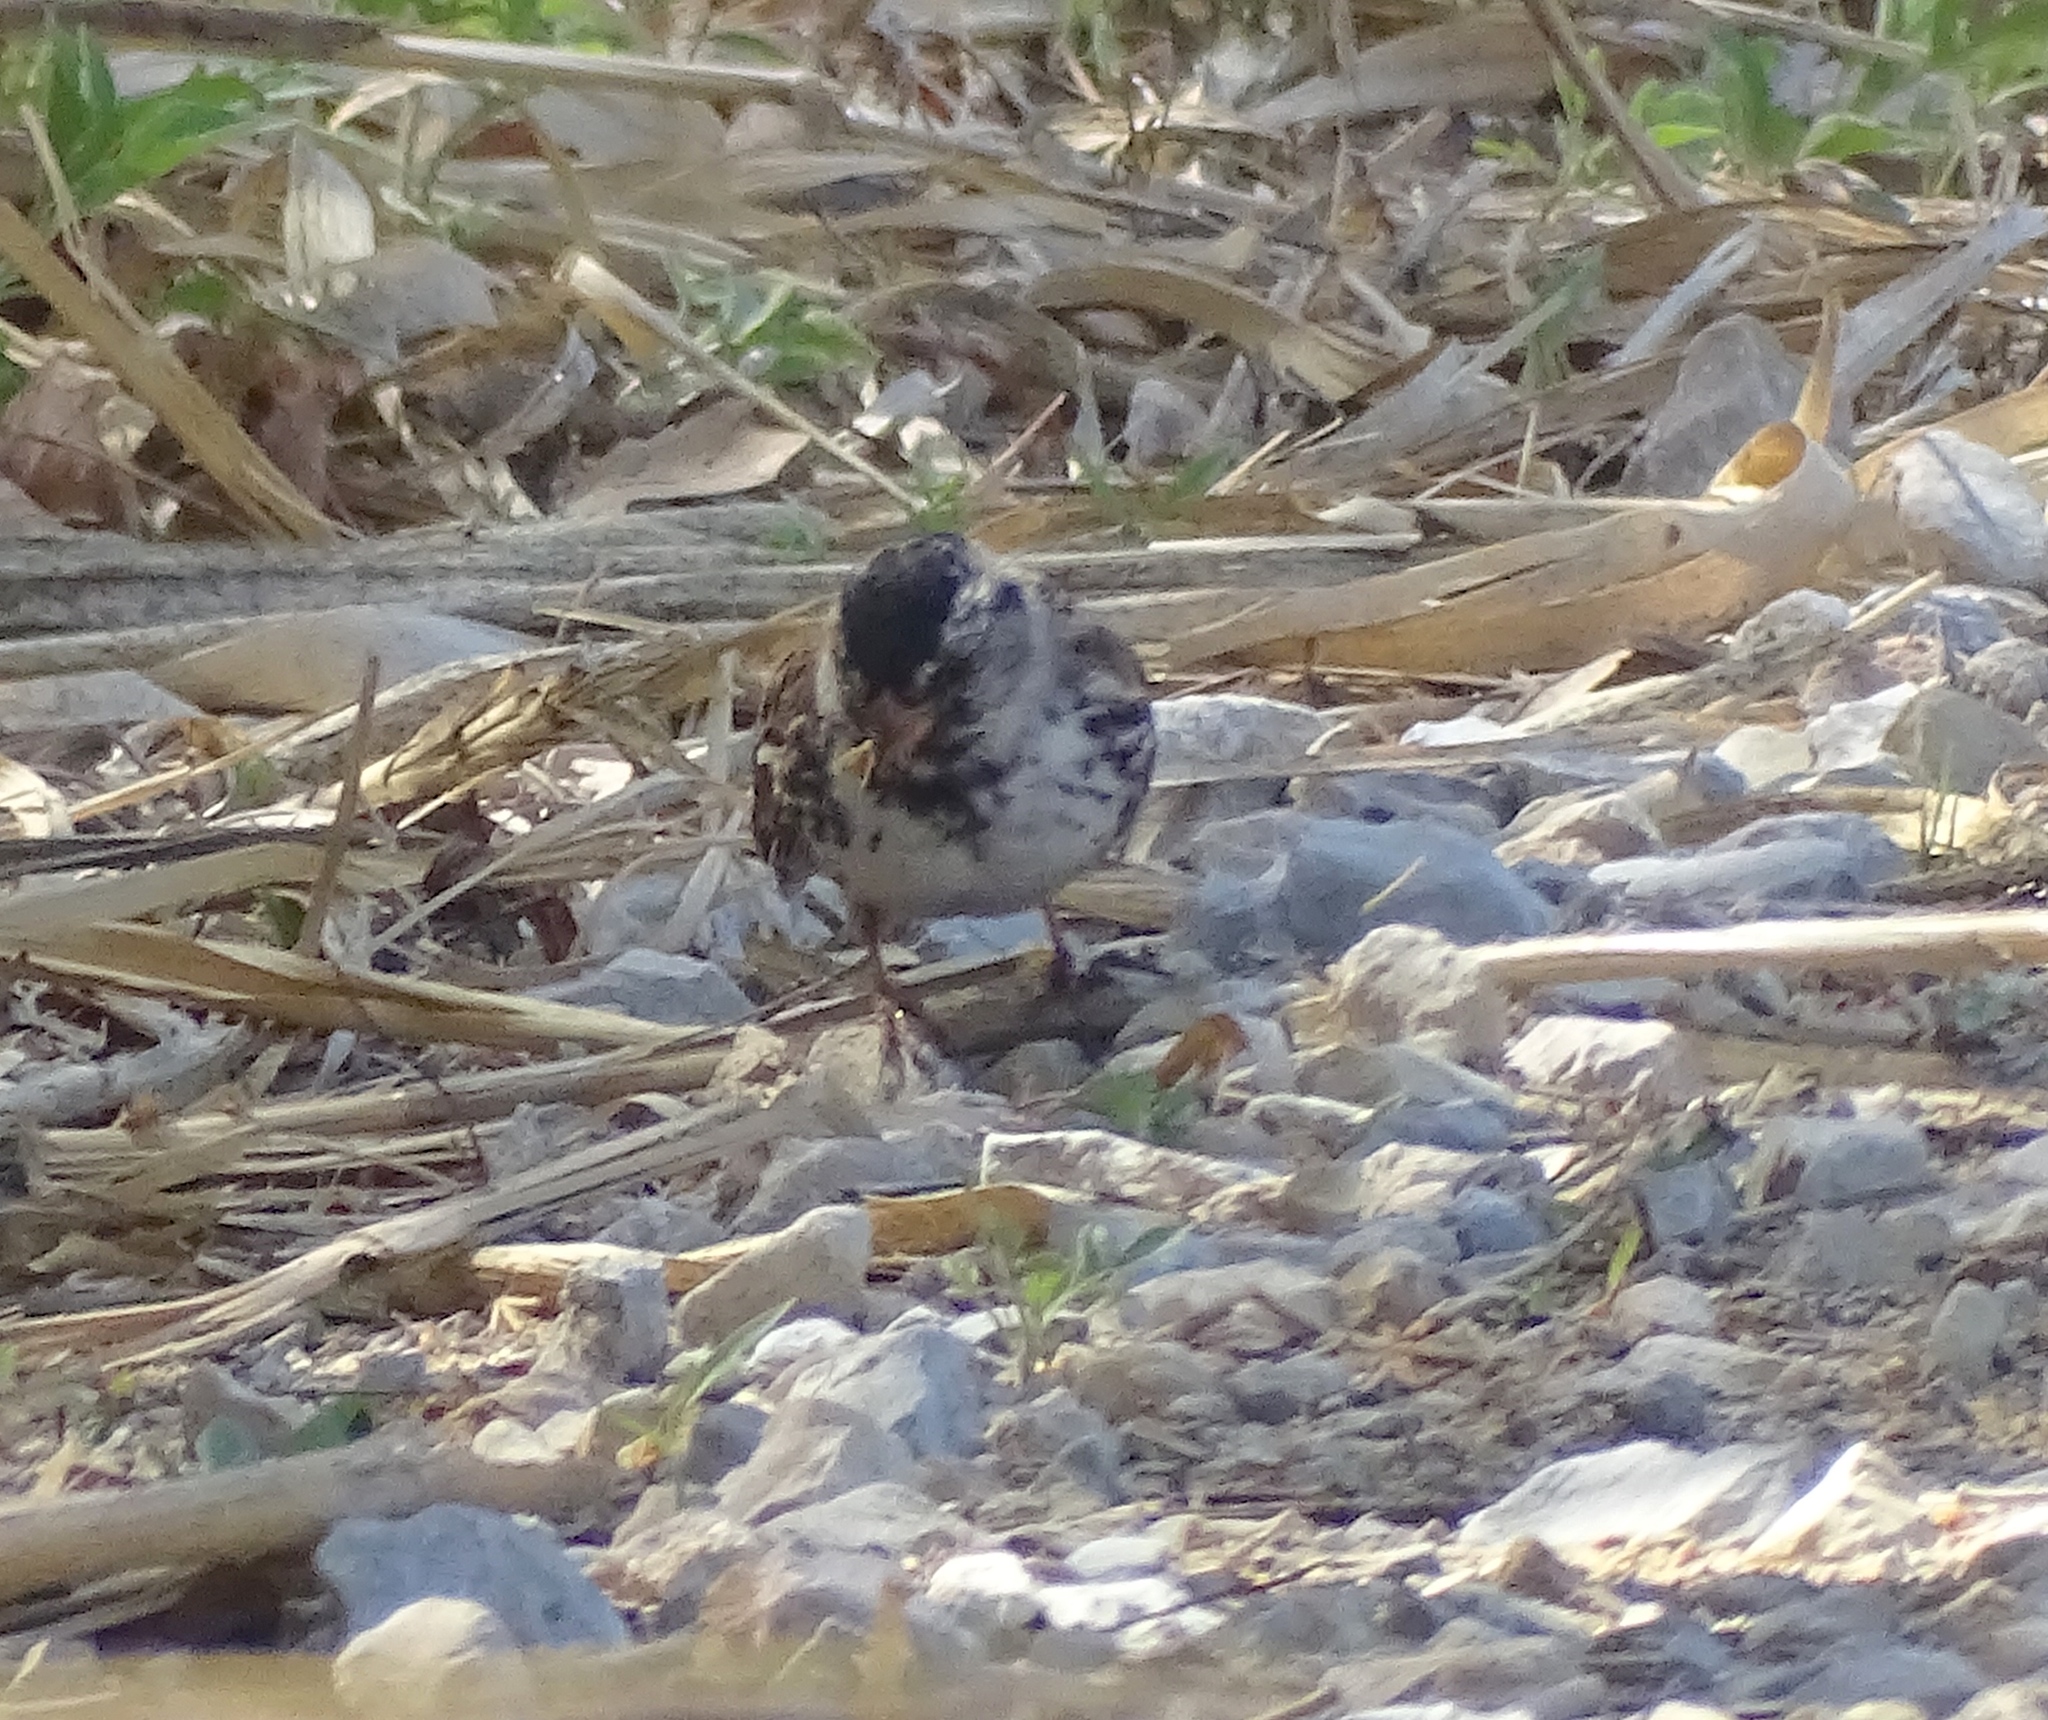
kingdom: Animalia
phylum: Chordata
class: Aves
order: Passeriformes
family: Passerellidae
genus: Zonotrichia
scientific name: Zonotrichia querula
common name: Harris's sparrow
